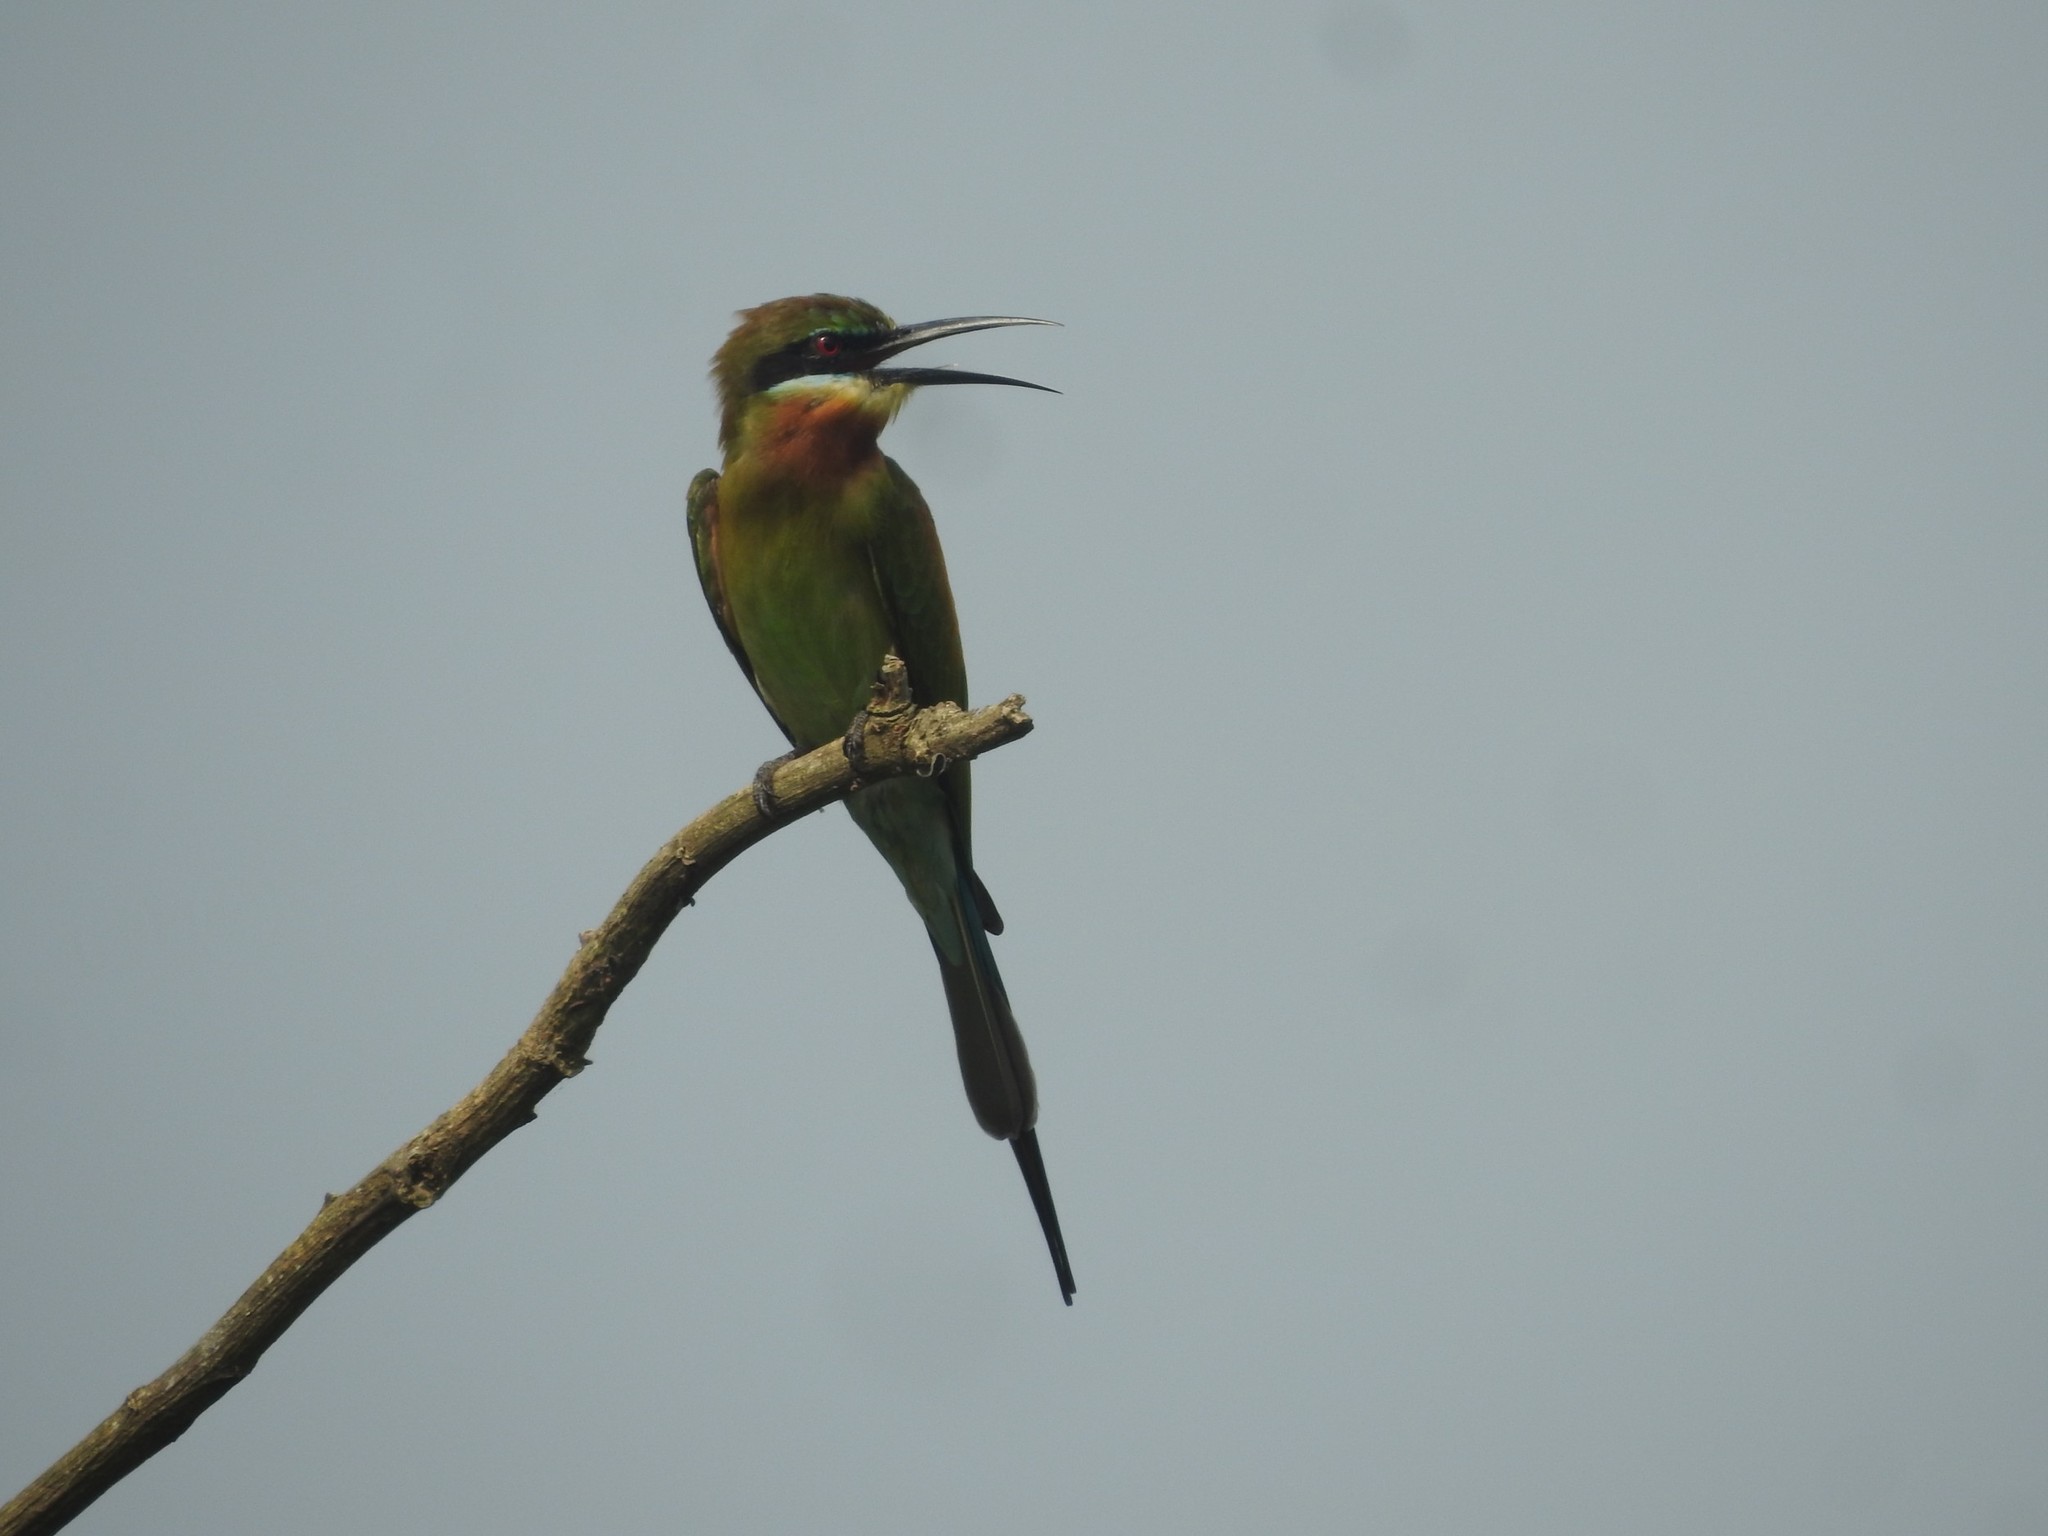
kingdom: Animalia
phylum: Chordata
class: Aves
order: Coraciiformes
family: Meropidae
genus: Merops
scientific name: Merops philippinus
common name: Blue-tailed bee-eater
